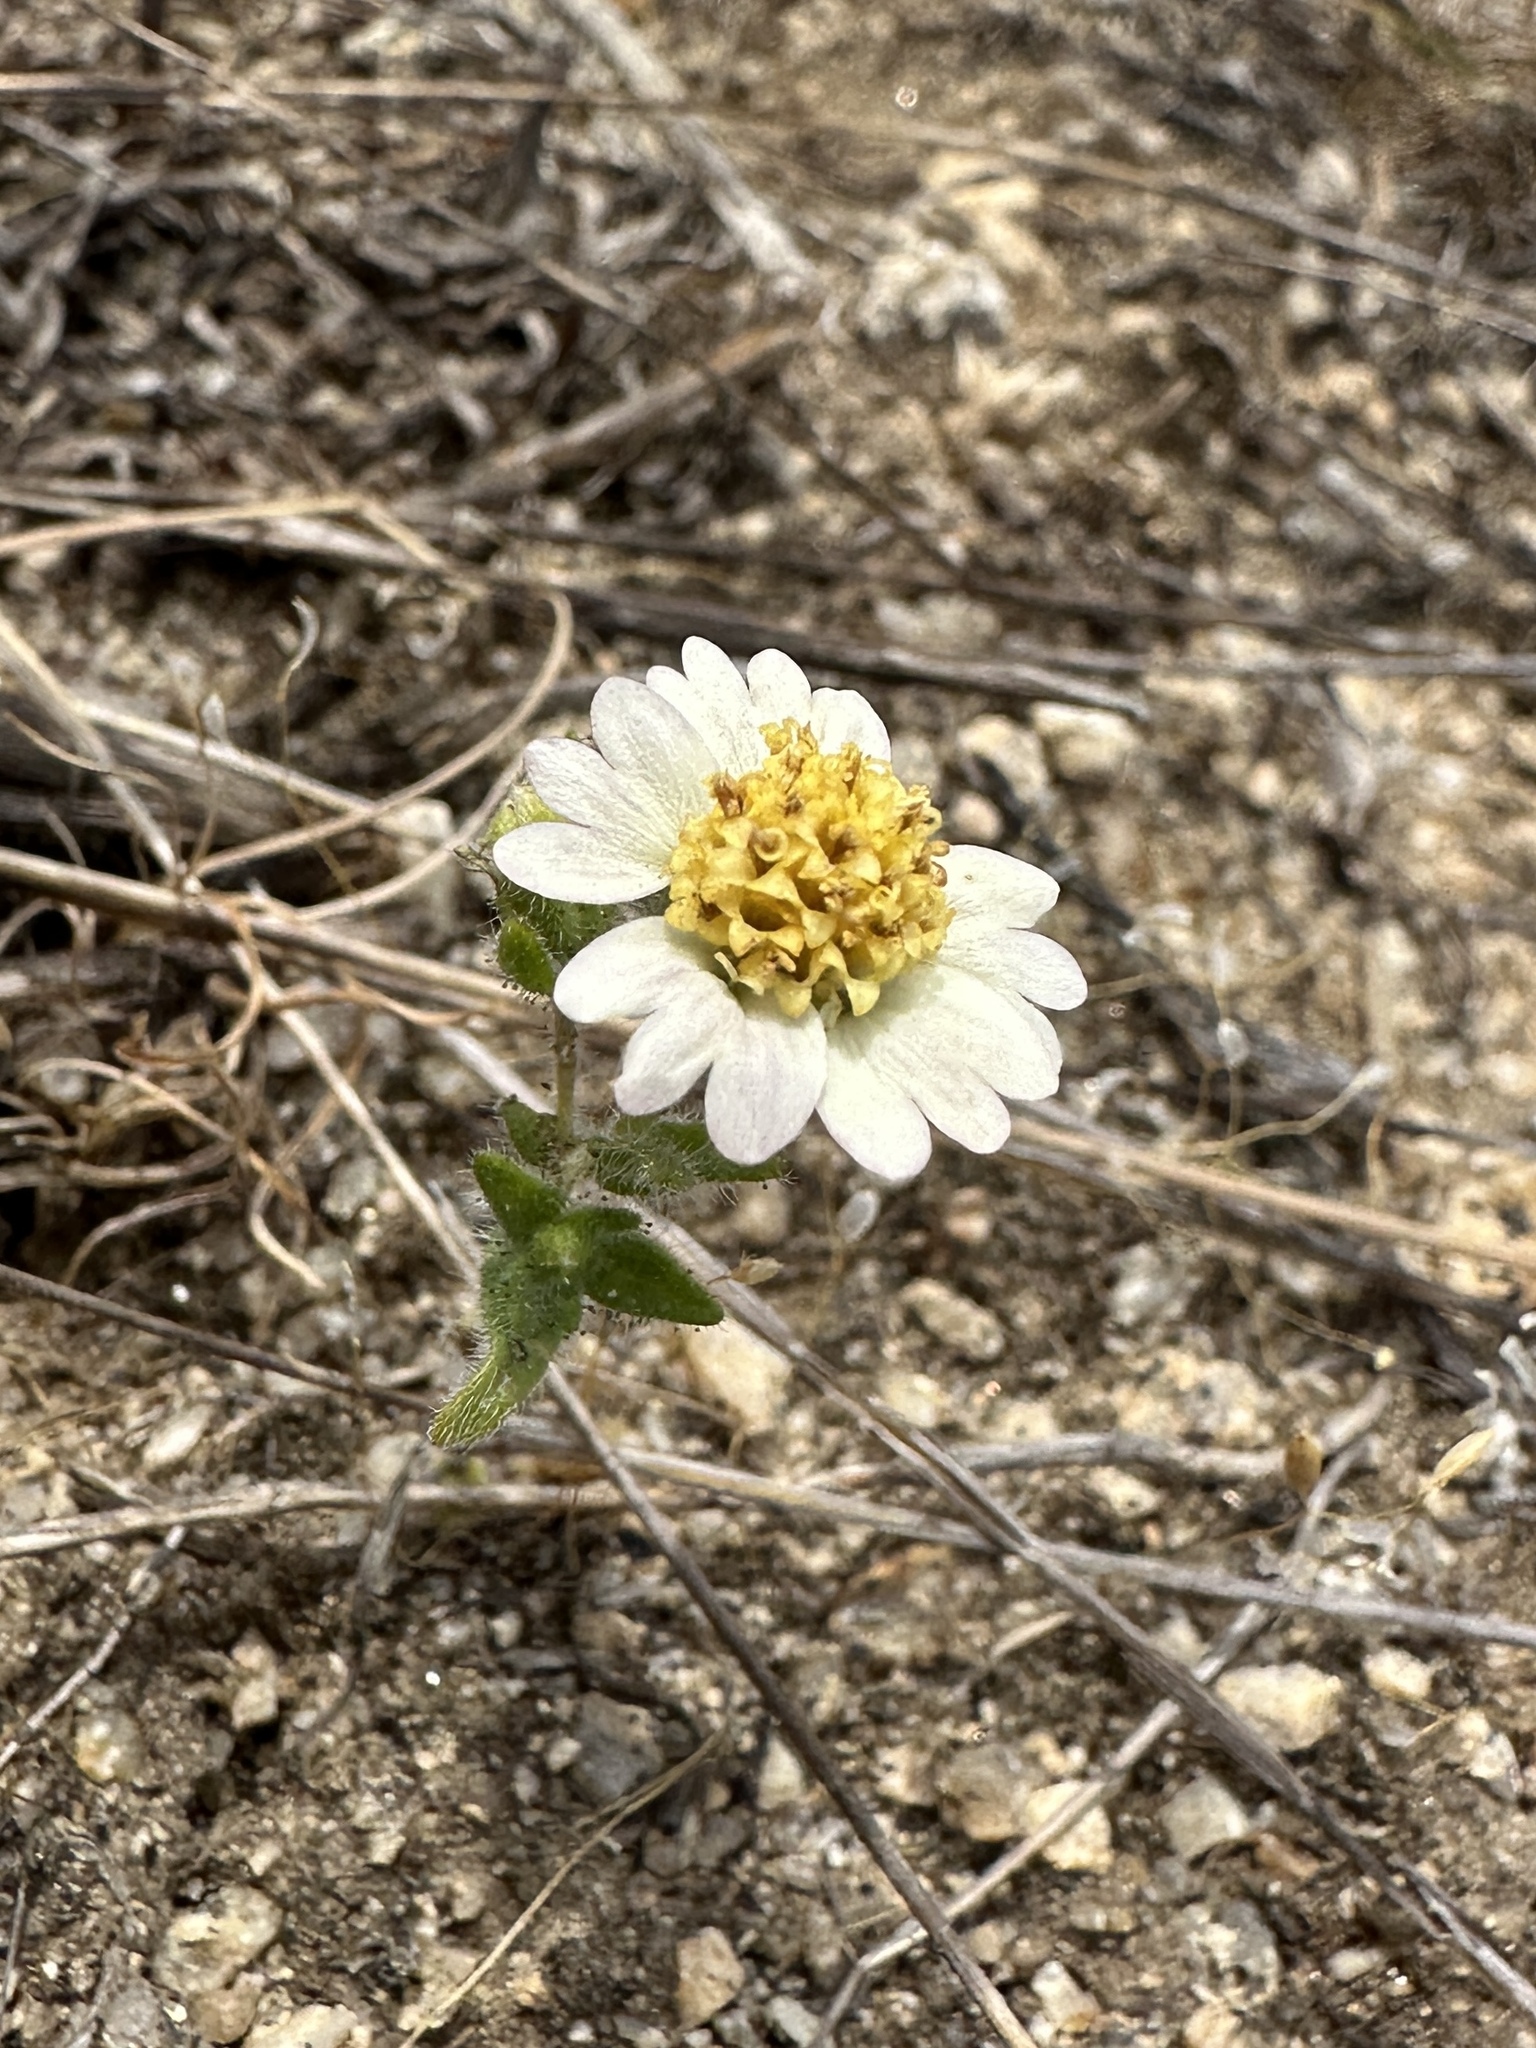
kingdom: Plantae
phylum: Tracheophyta
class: Magnoliopsida
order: Asterales
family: Asteraceae
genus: Layia
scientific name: Layia glandulosa
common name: White layia
